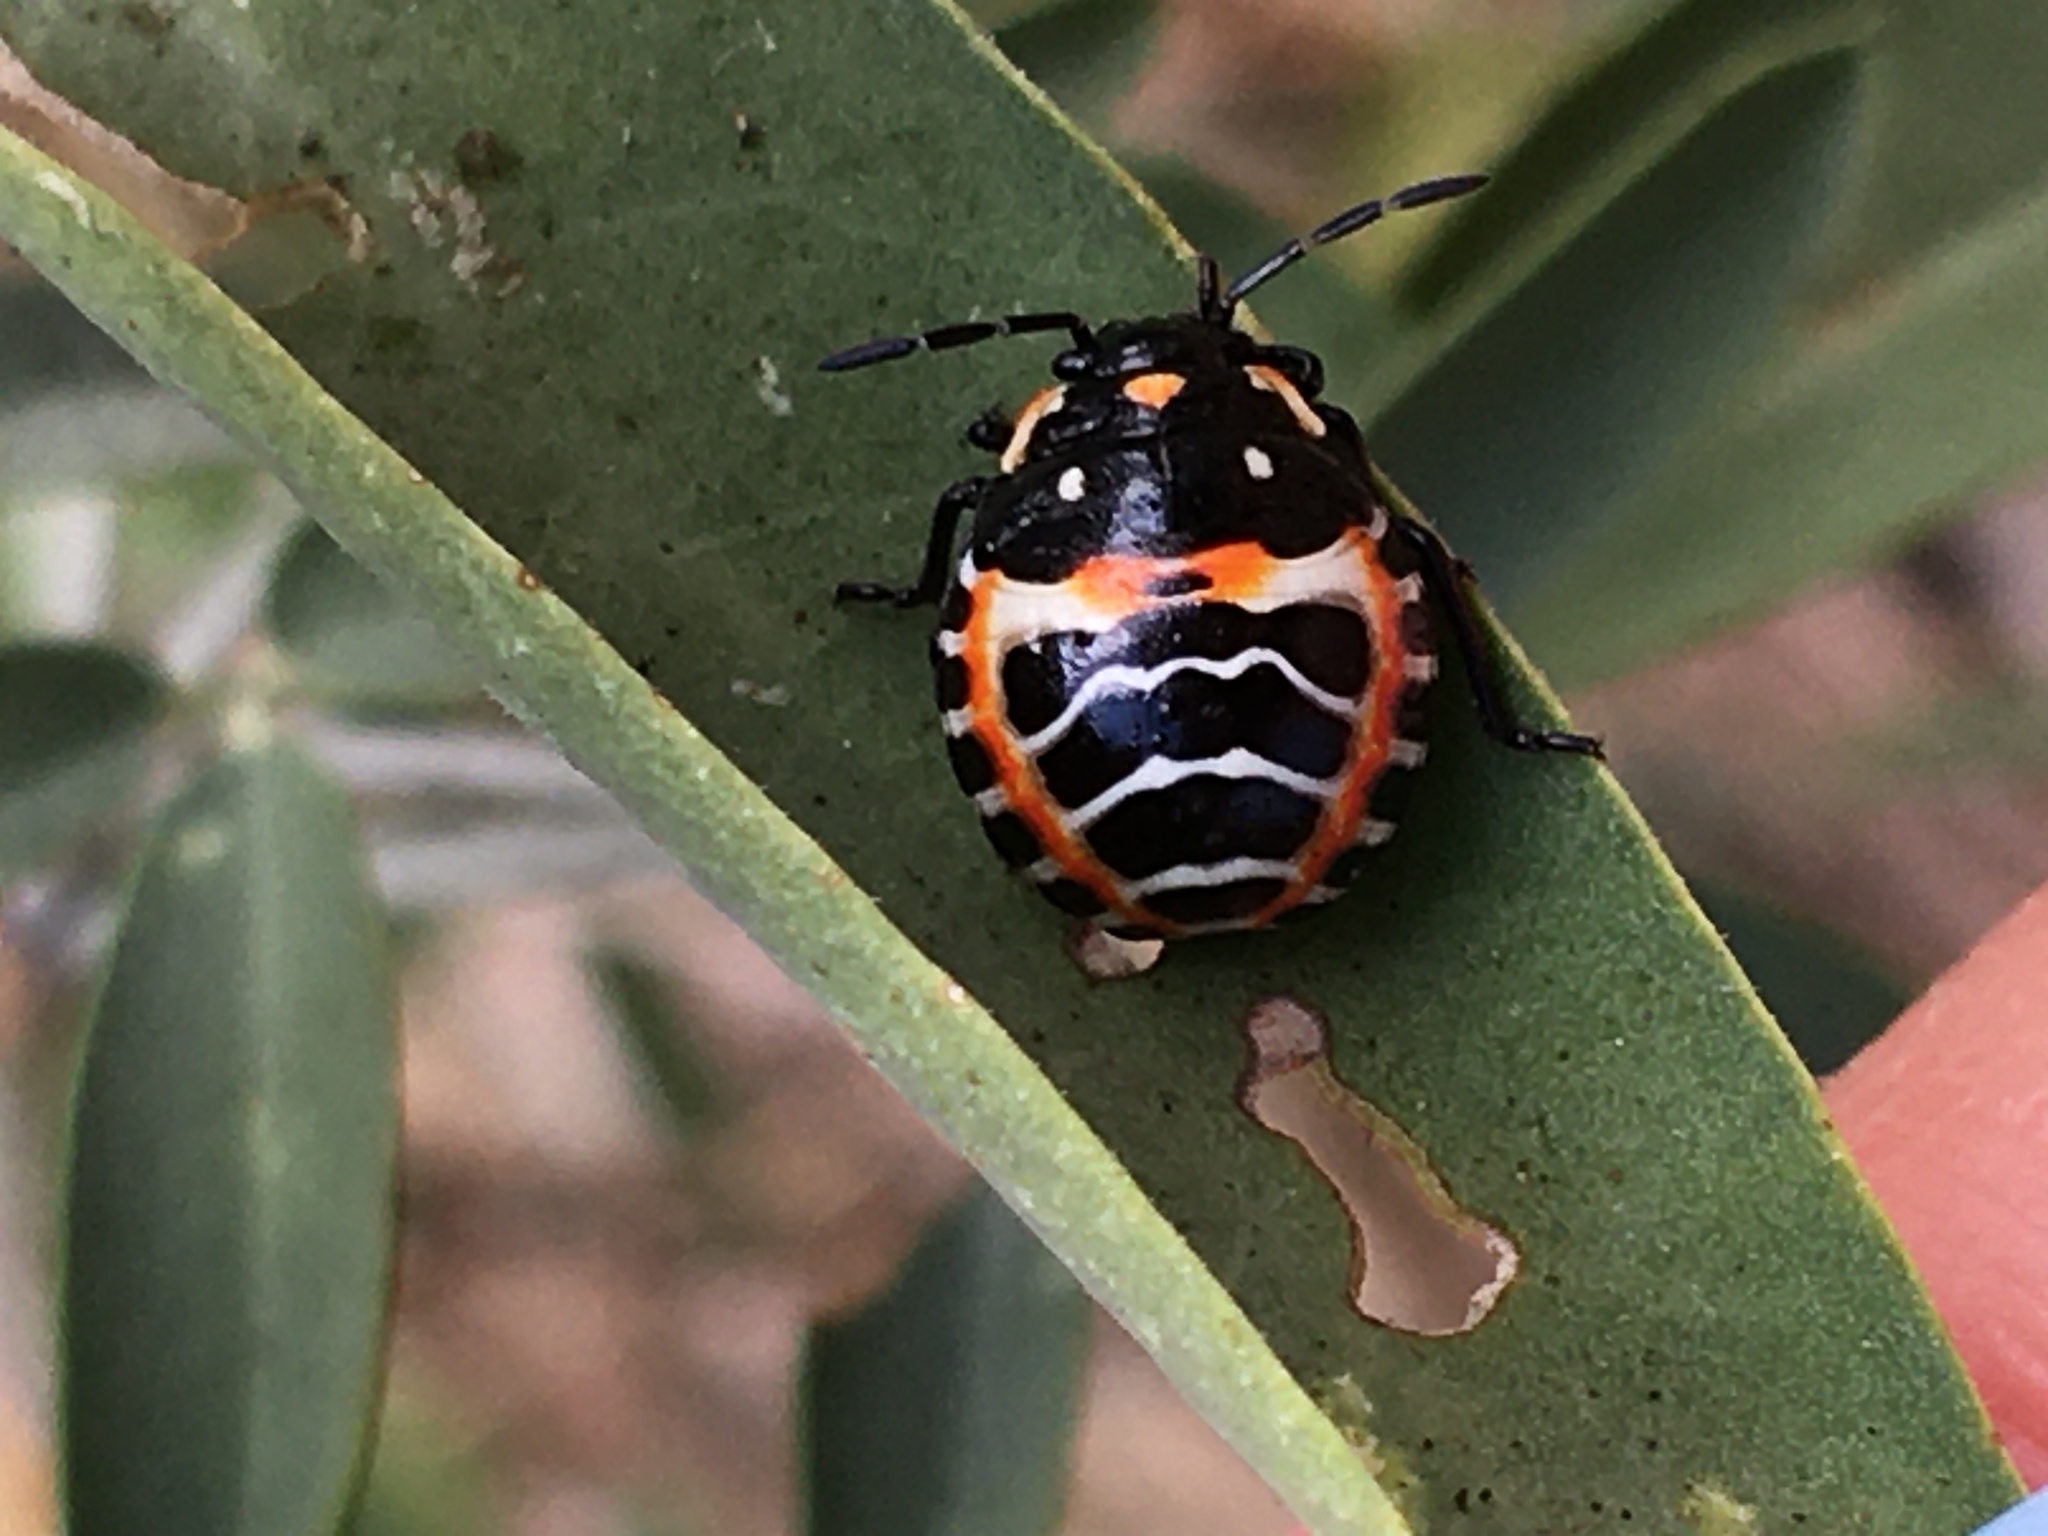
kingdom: Animalia
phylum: Arthropoda
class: Insecta
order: Hemiptera
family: Pentatomidae
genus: Murgantia
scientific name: Murgantia histrionica
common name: Harlequin bug
